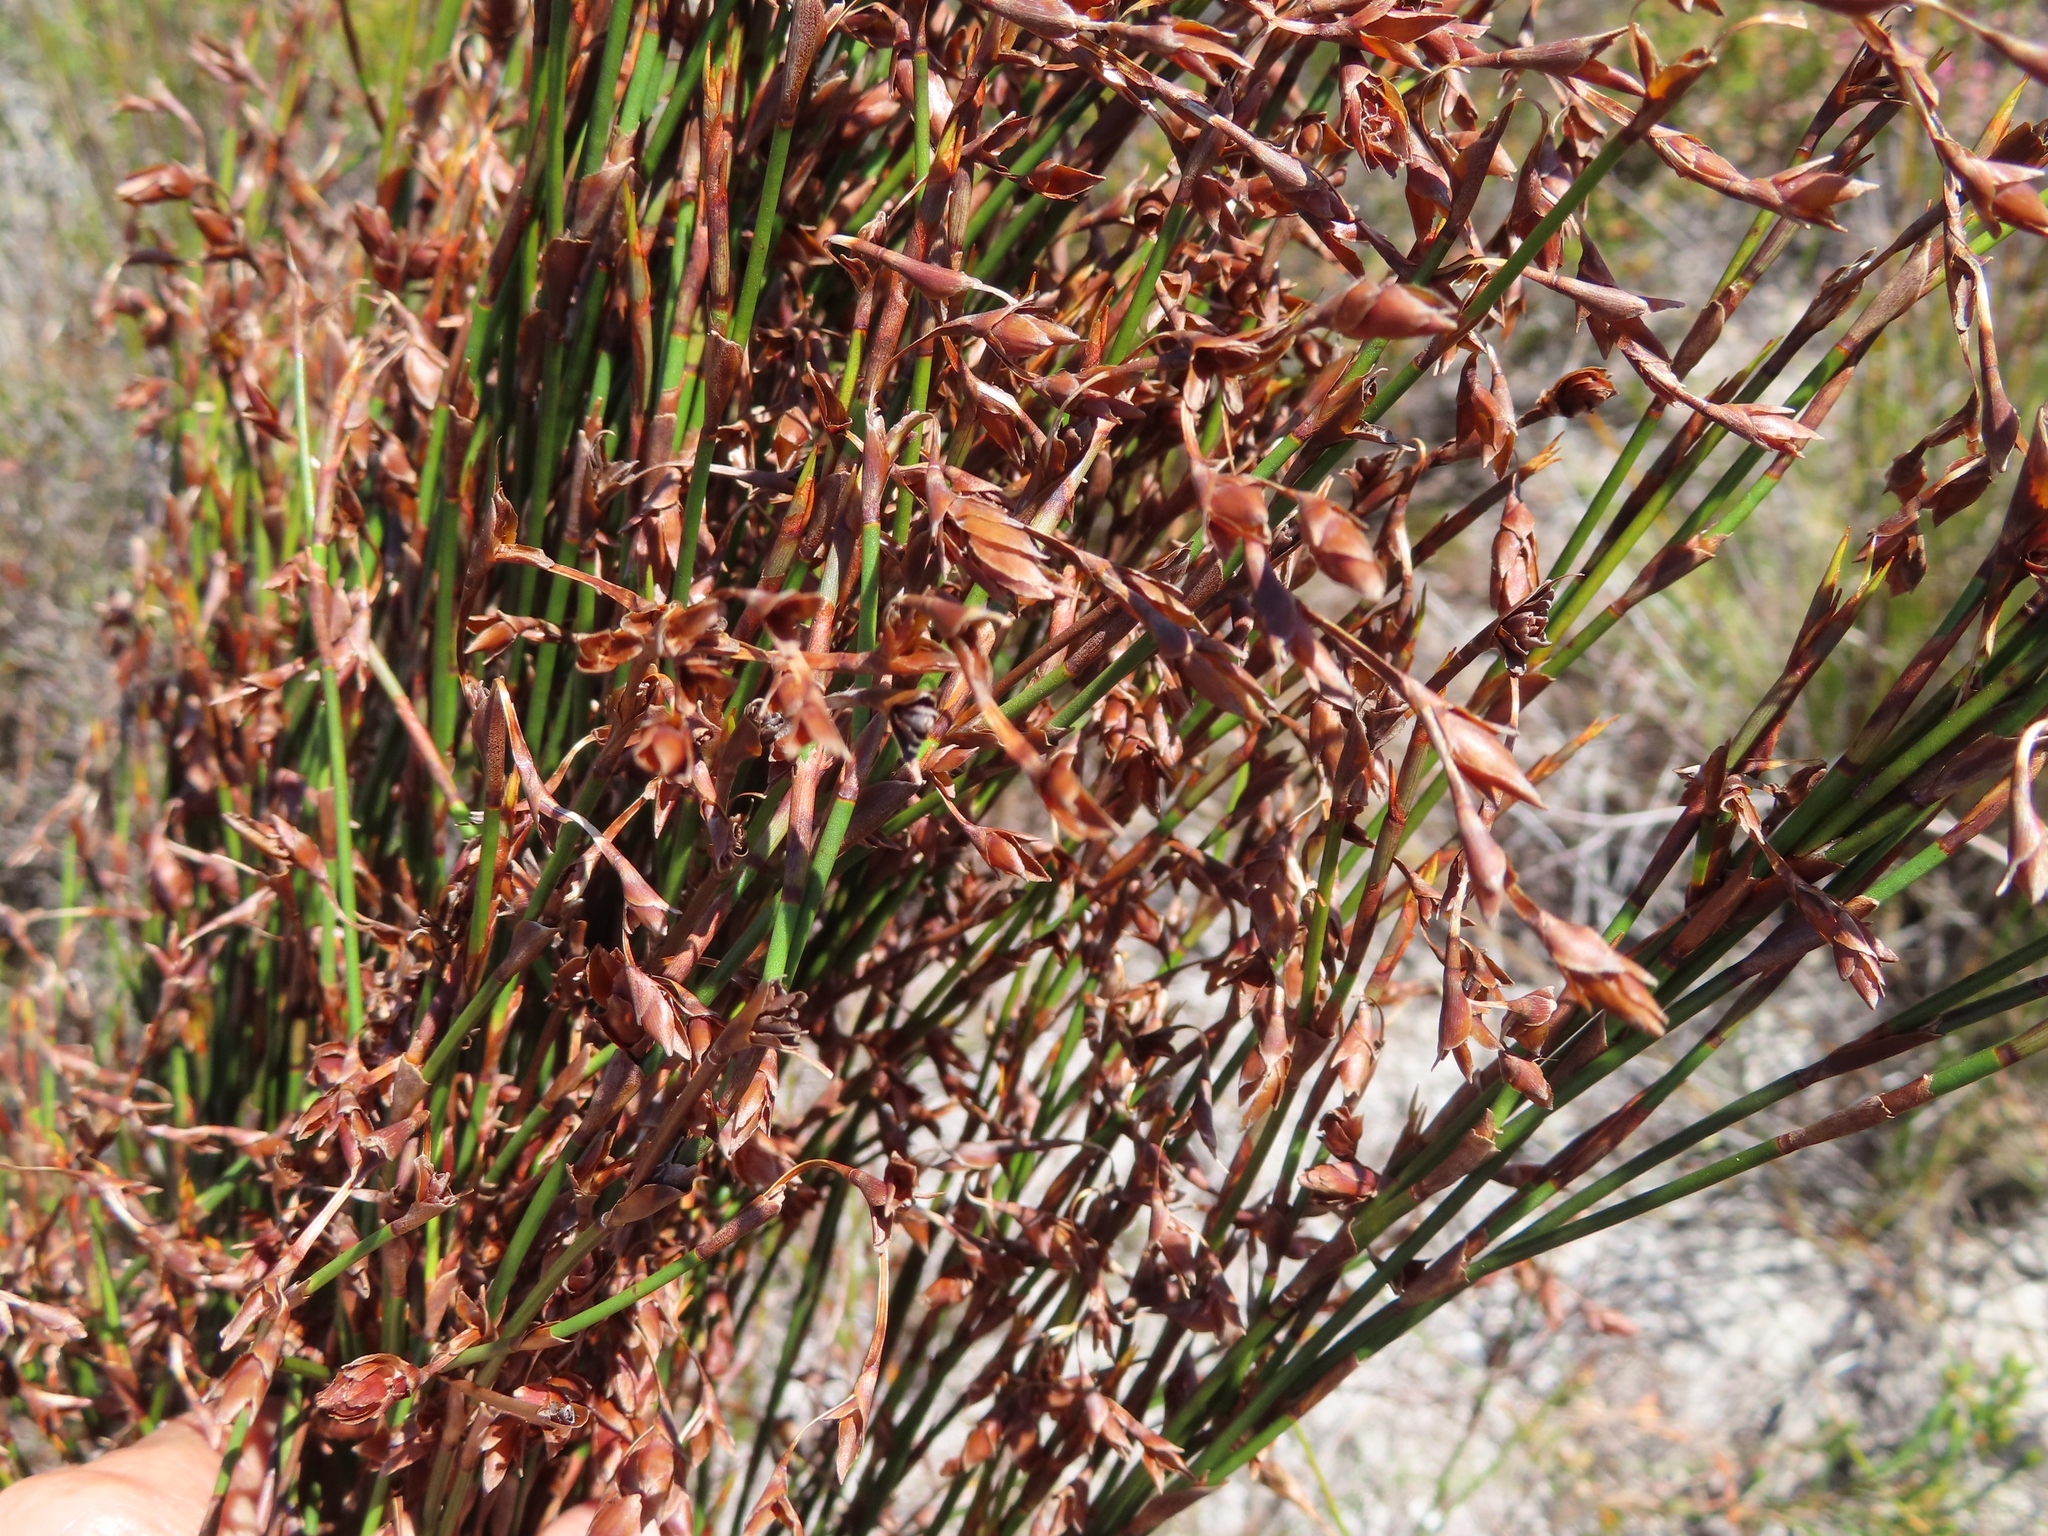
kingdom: Plantae
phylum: Tracheophyta
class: Liliopsida
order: Poales
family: Restionaceae
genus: Restio
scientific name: Restio bifarius
